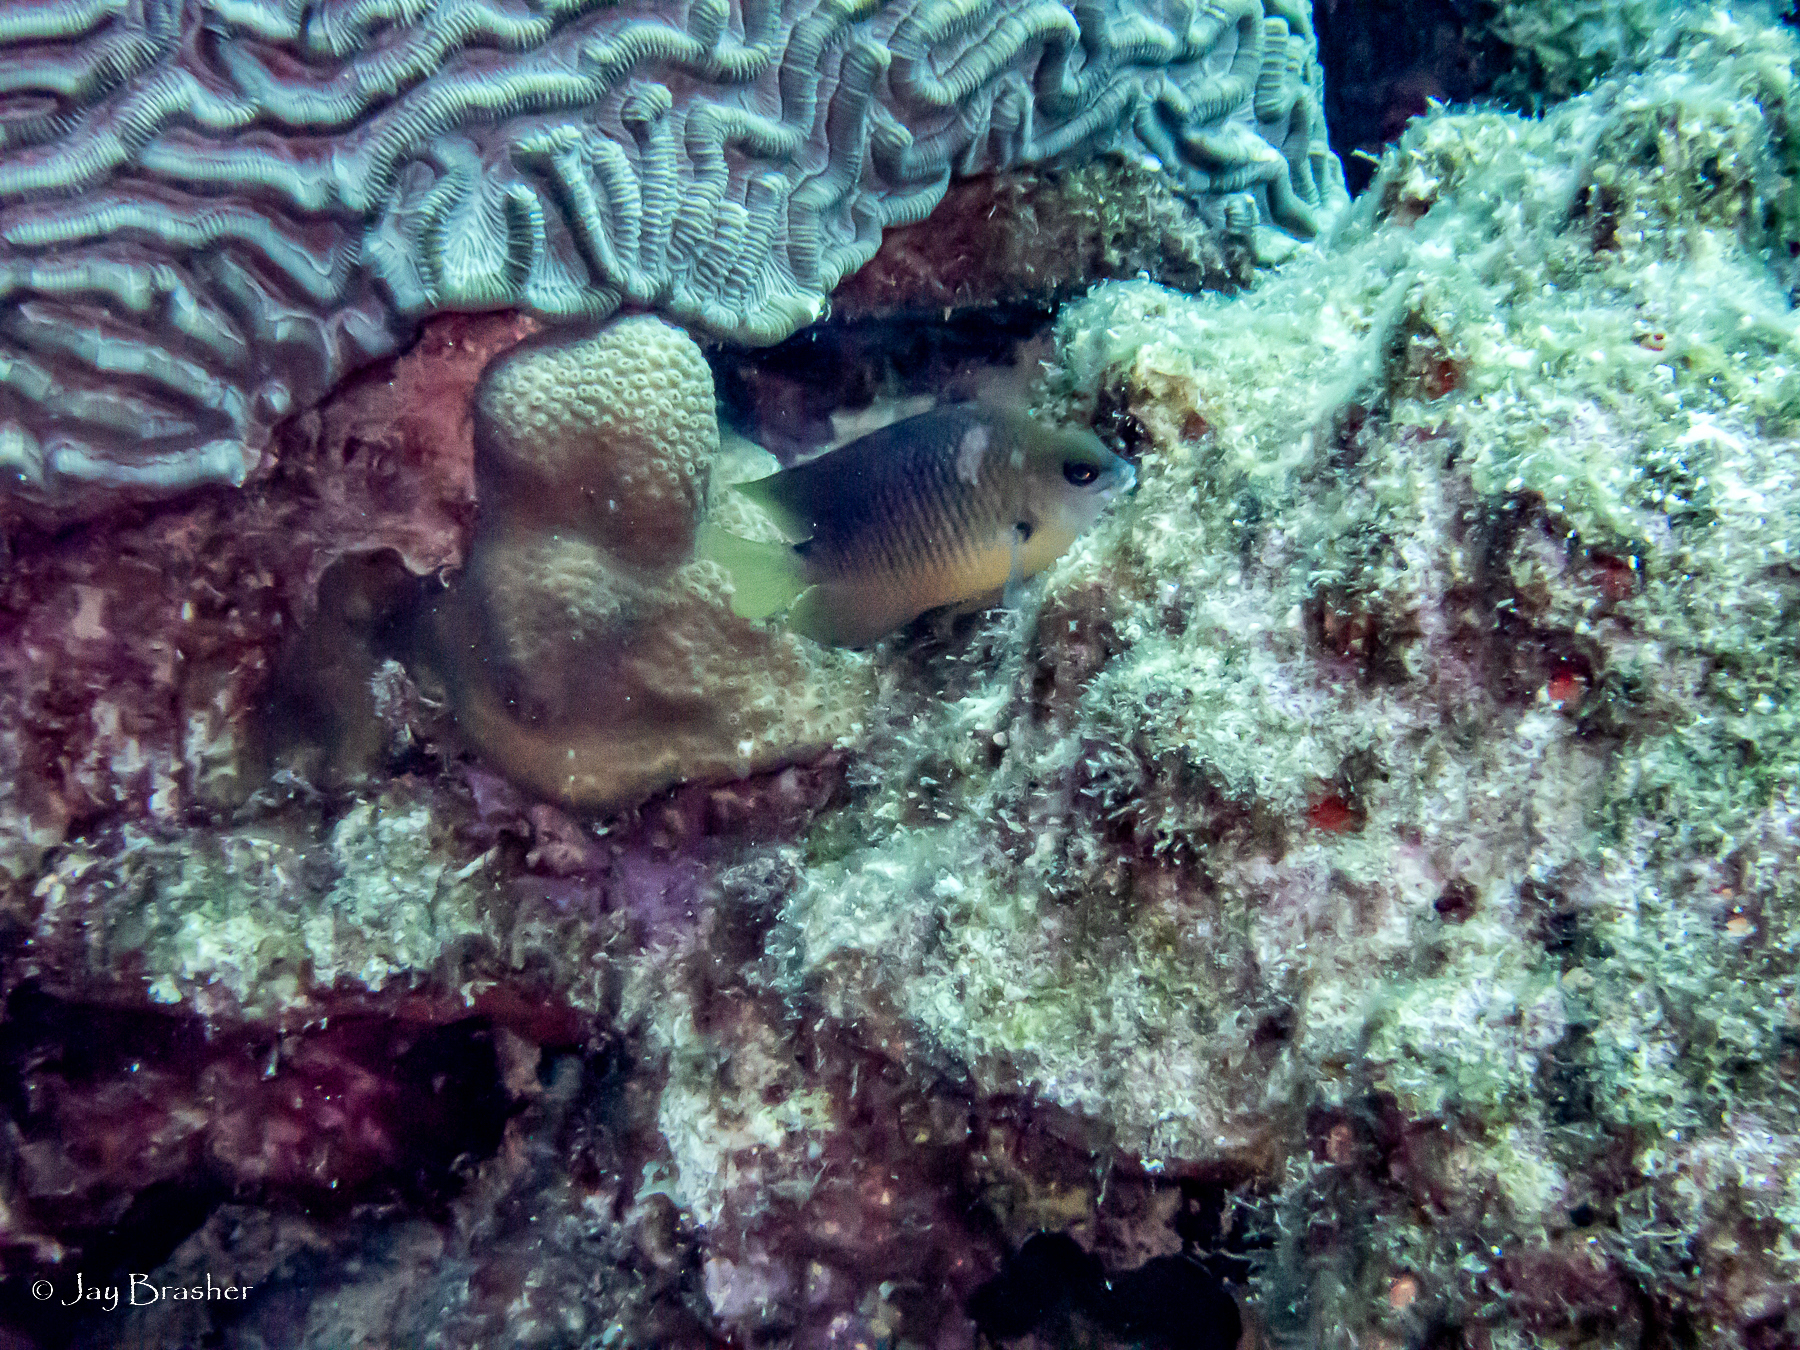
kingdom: Animalia
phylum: Chordata
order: Perciformes
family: Pomacentridae
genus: Stegastes
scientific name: Stegastes planifrons
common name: Threespot damselfish
